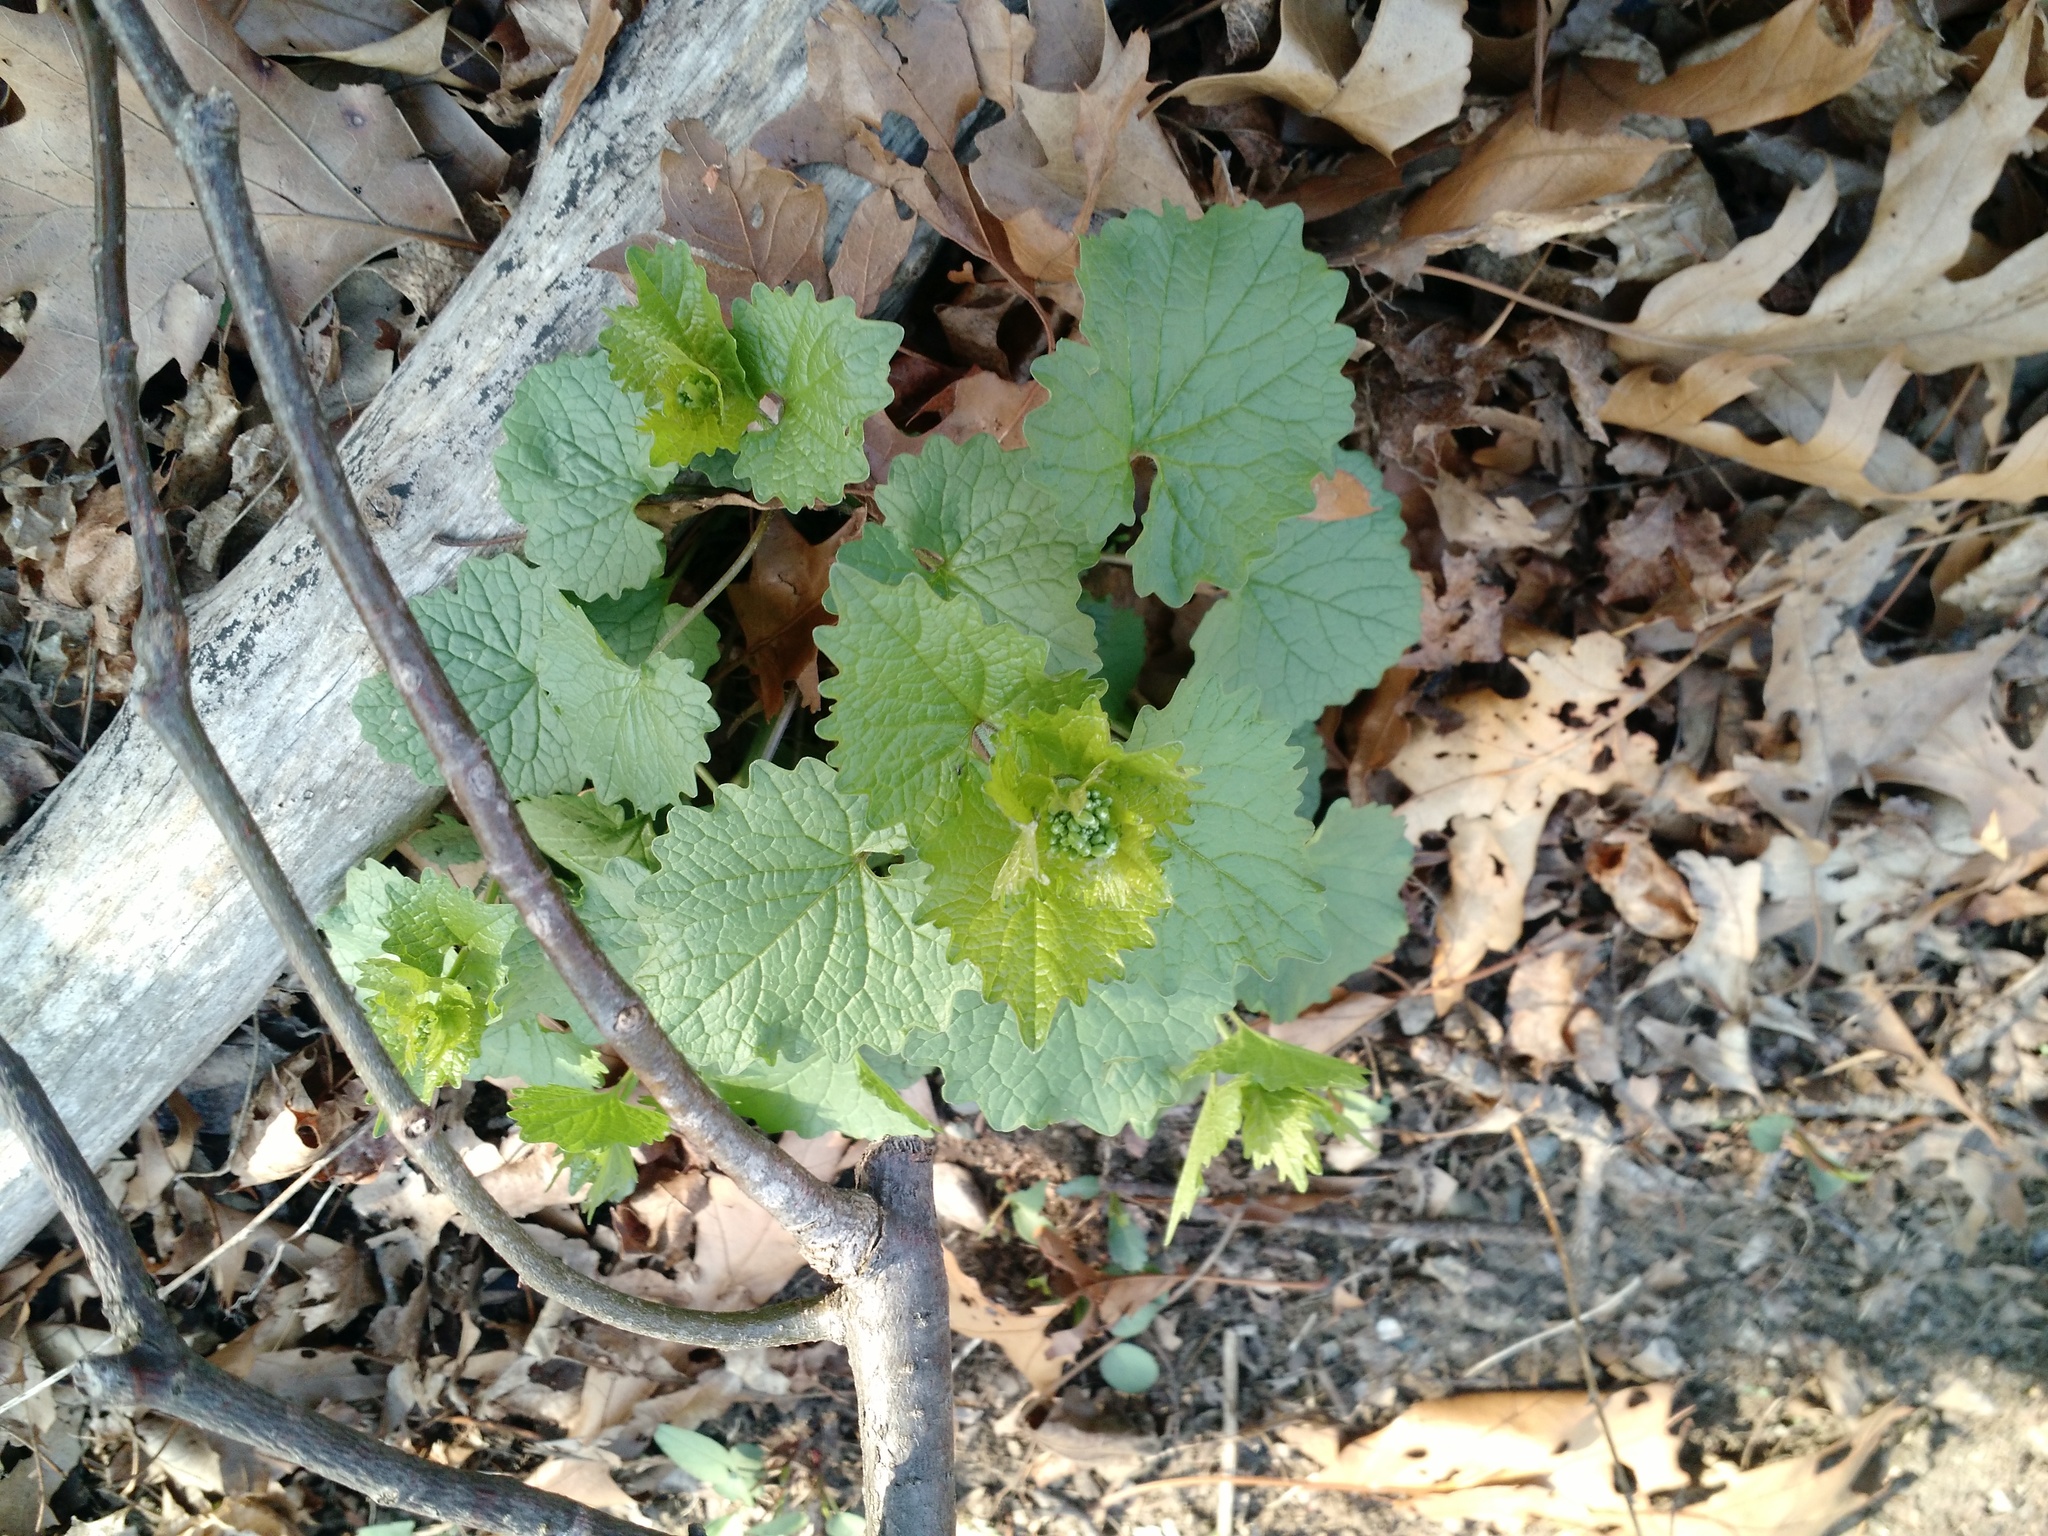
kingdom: Plantae
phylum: Tracheophyta
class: Magnoliopsida
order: Brassicales
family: Brassicaceae
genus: Alliaria
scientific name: Alliaria petiolata
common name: Garlic mustard
